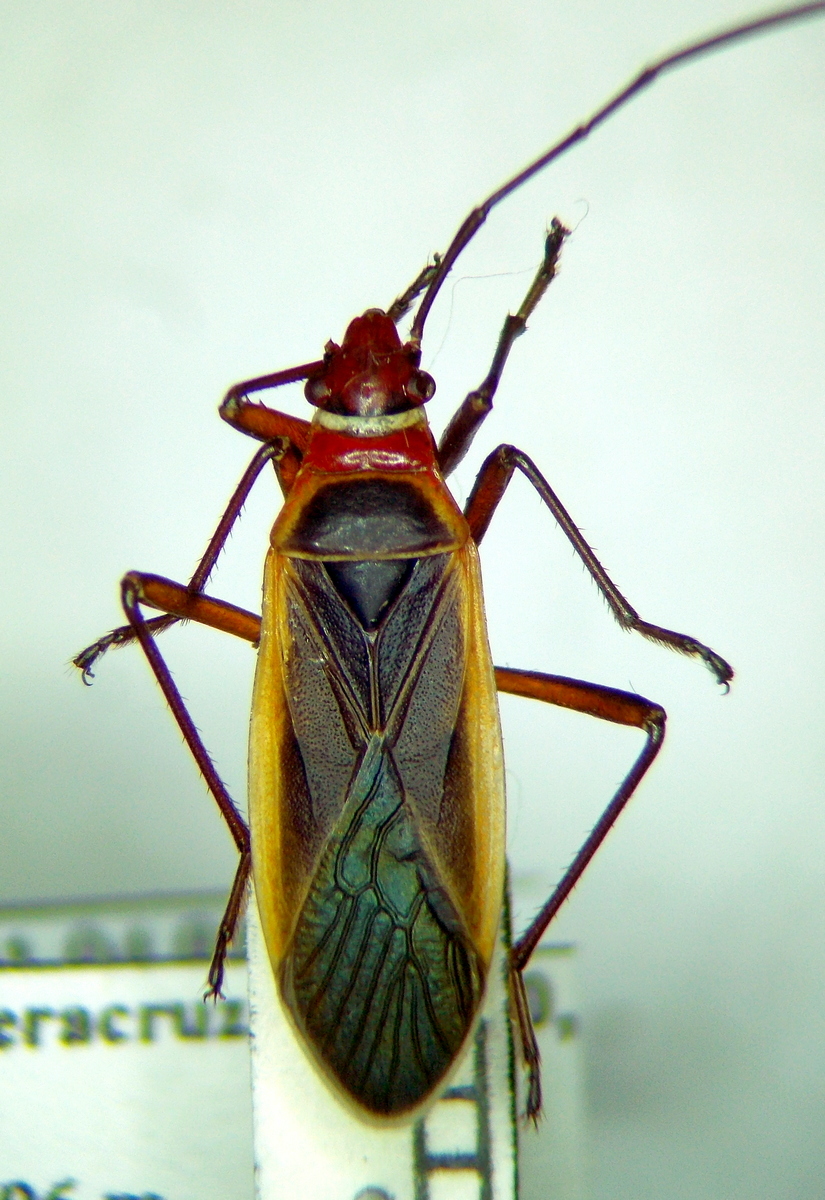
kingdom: Animalia
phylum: Arthropoda
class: Insecta
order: Hemiptera
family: Pyrrhocoridae
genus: Dysdercus
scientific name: Dysdercus obscuratus
